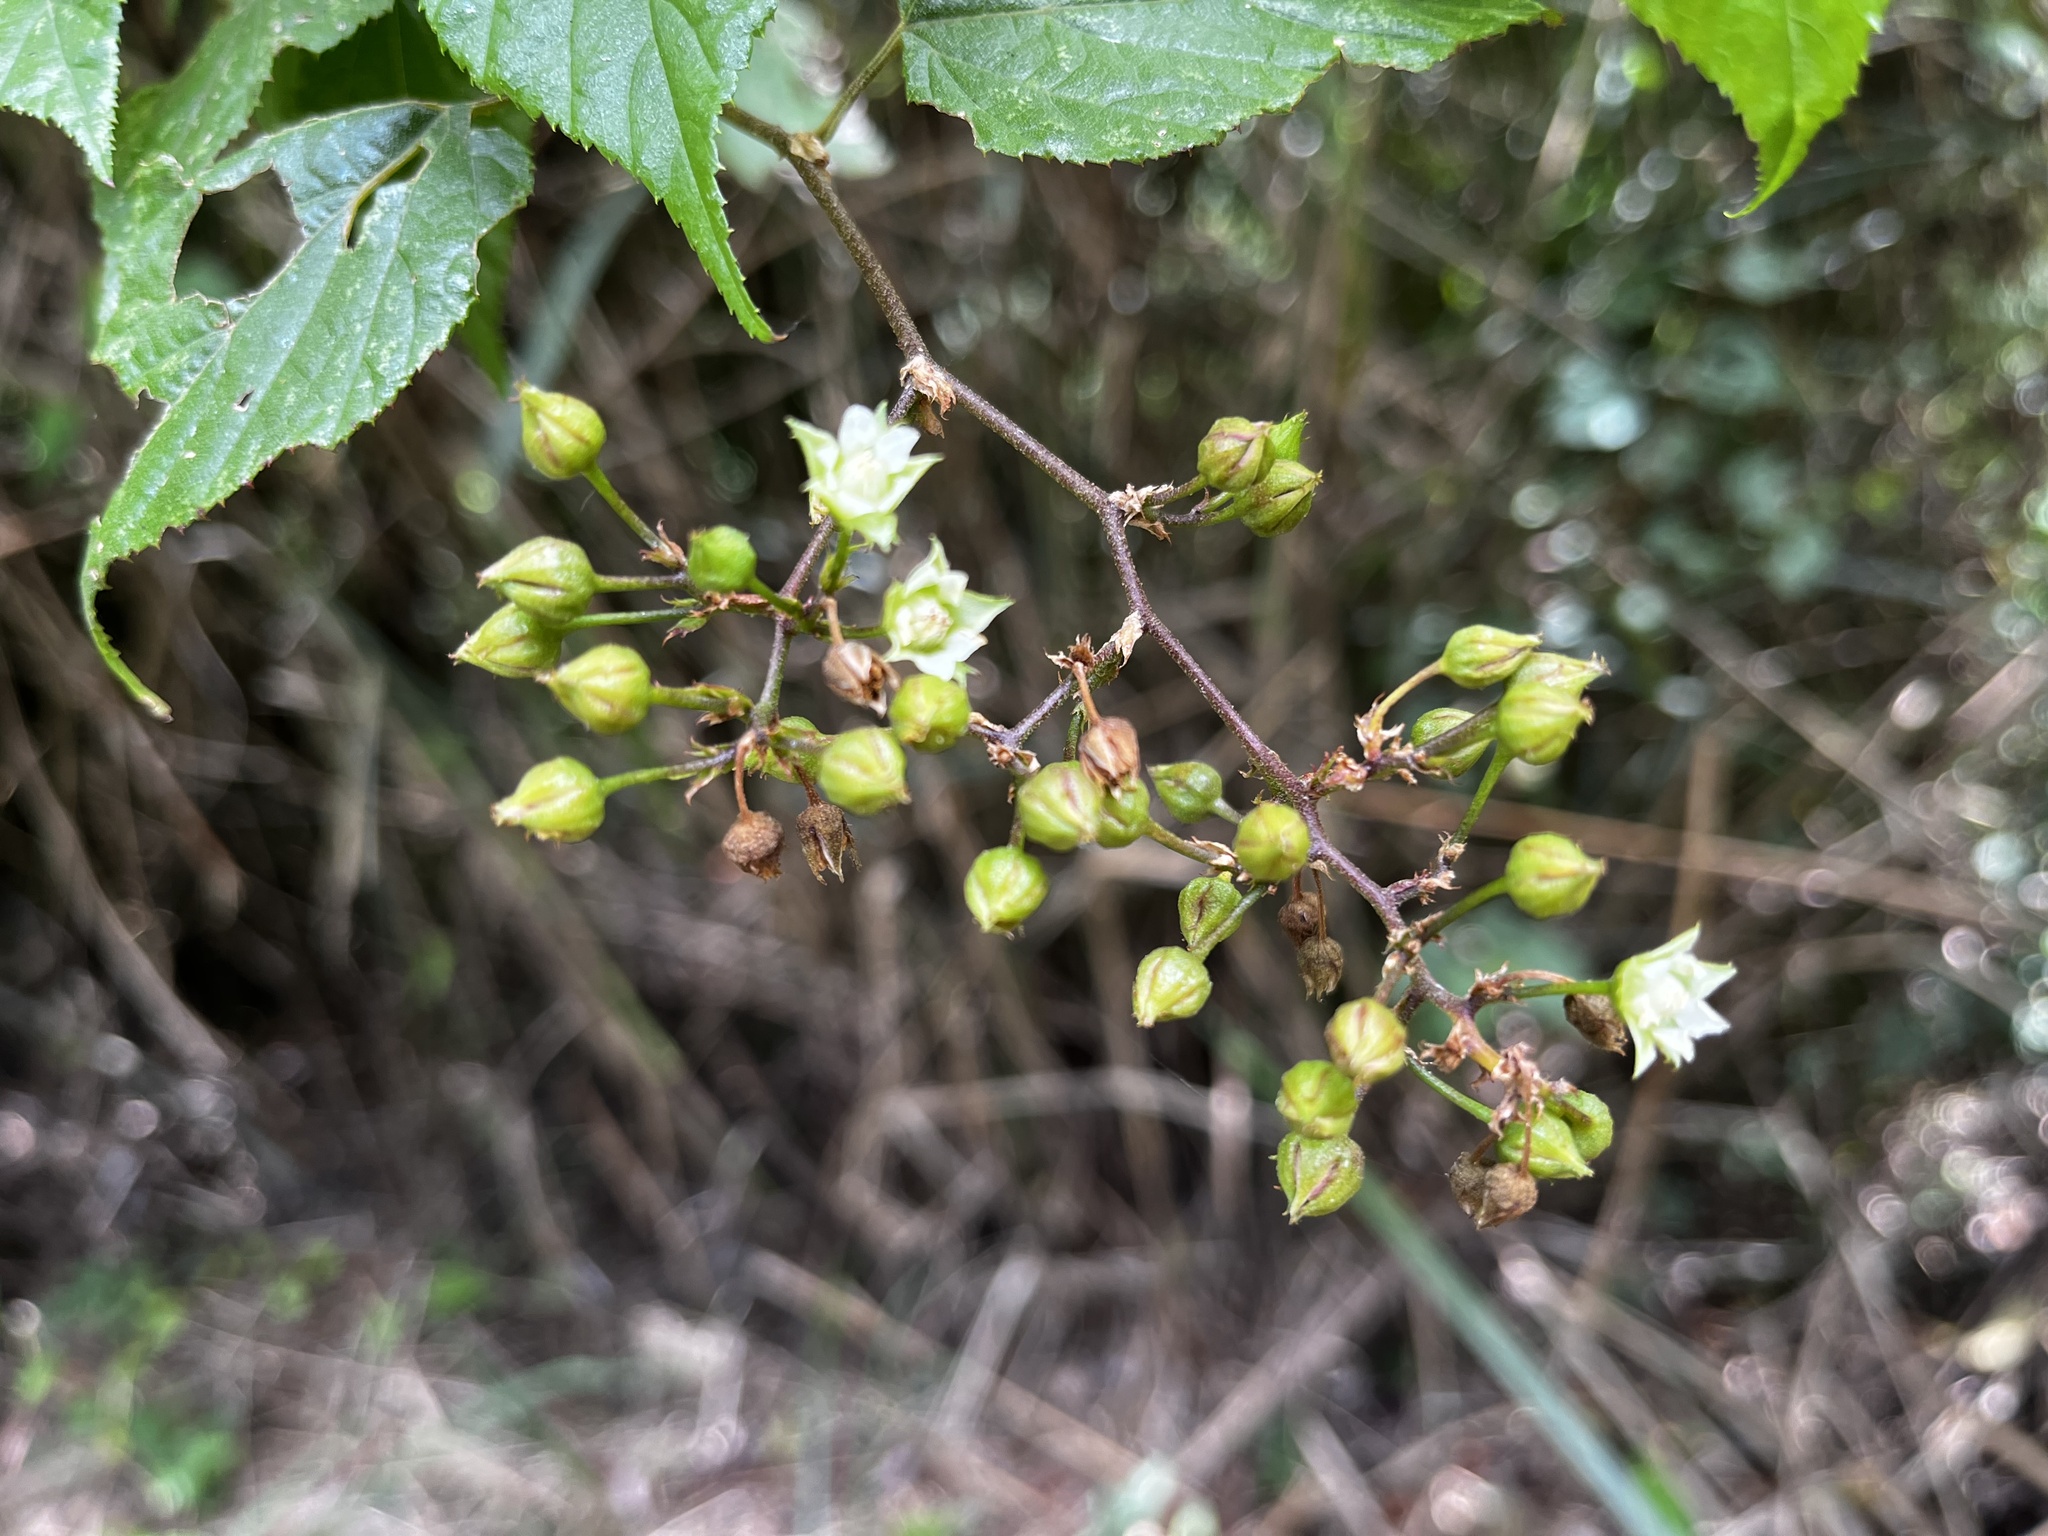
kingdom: Plantae
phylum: Tracheophyta
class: Magnoliopsida
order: Rosales
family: Rosaceae
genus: Rubus
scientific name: Rubus lambertianus
